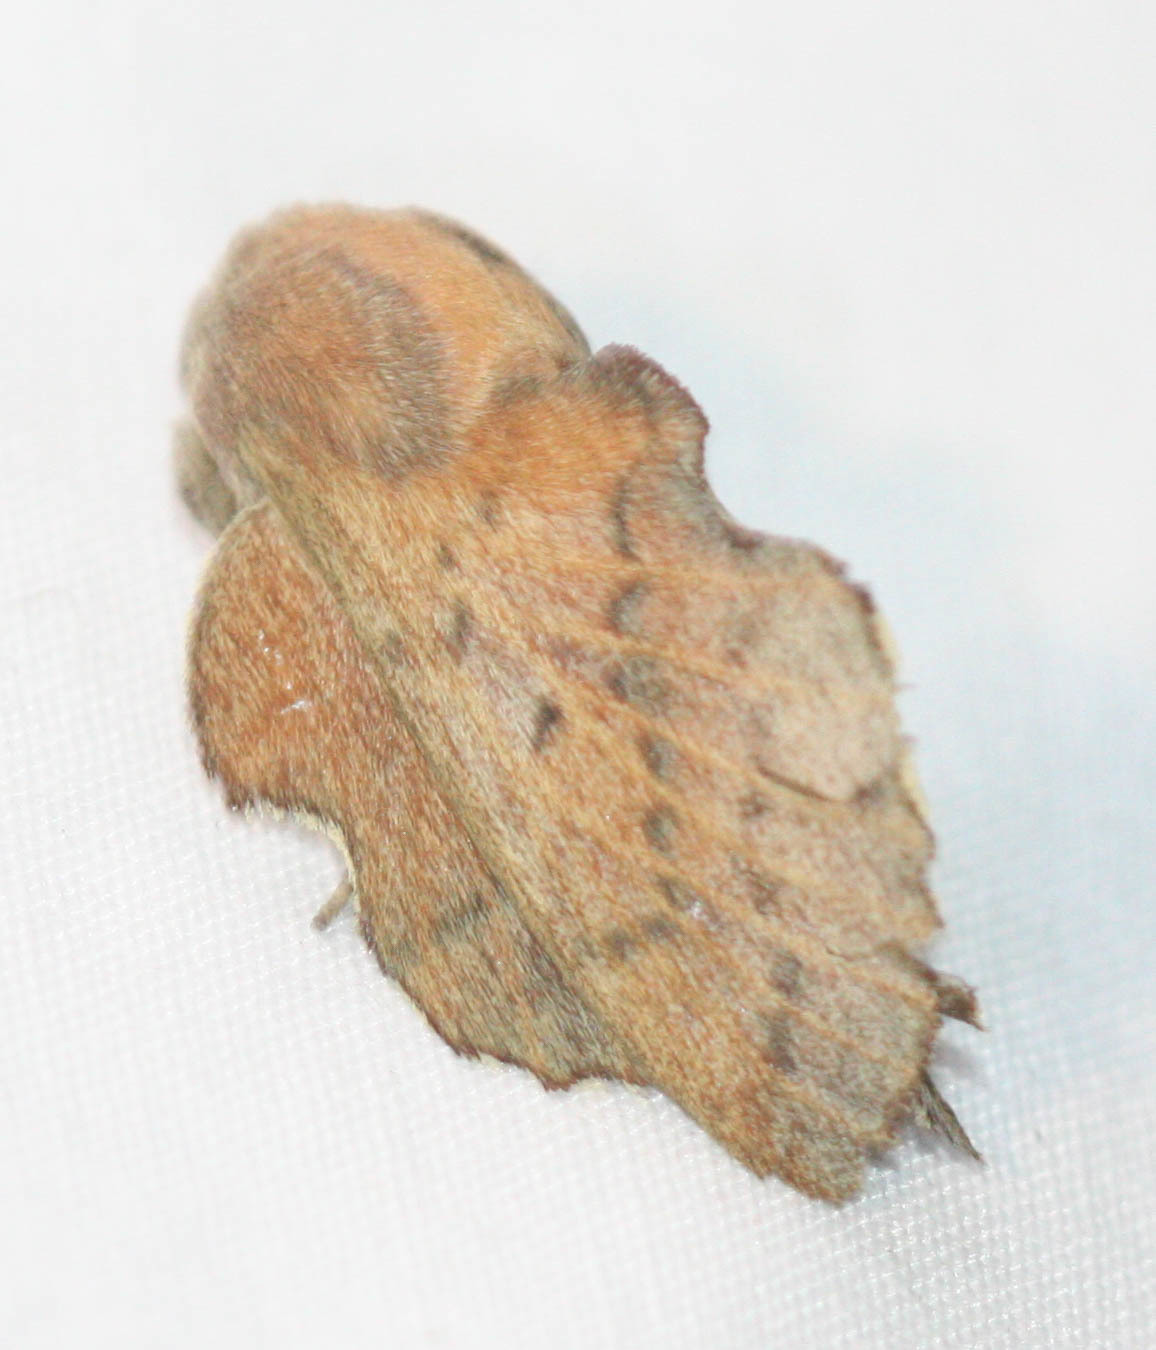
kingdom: Animalia
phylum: Arthropoda
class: Insecta
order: Lepidoptera
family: Lasiocampidae
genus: Phyllodesma
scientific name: Phyllodesma americana
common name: American lappet moth
